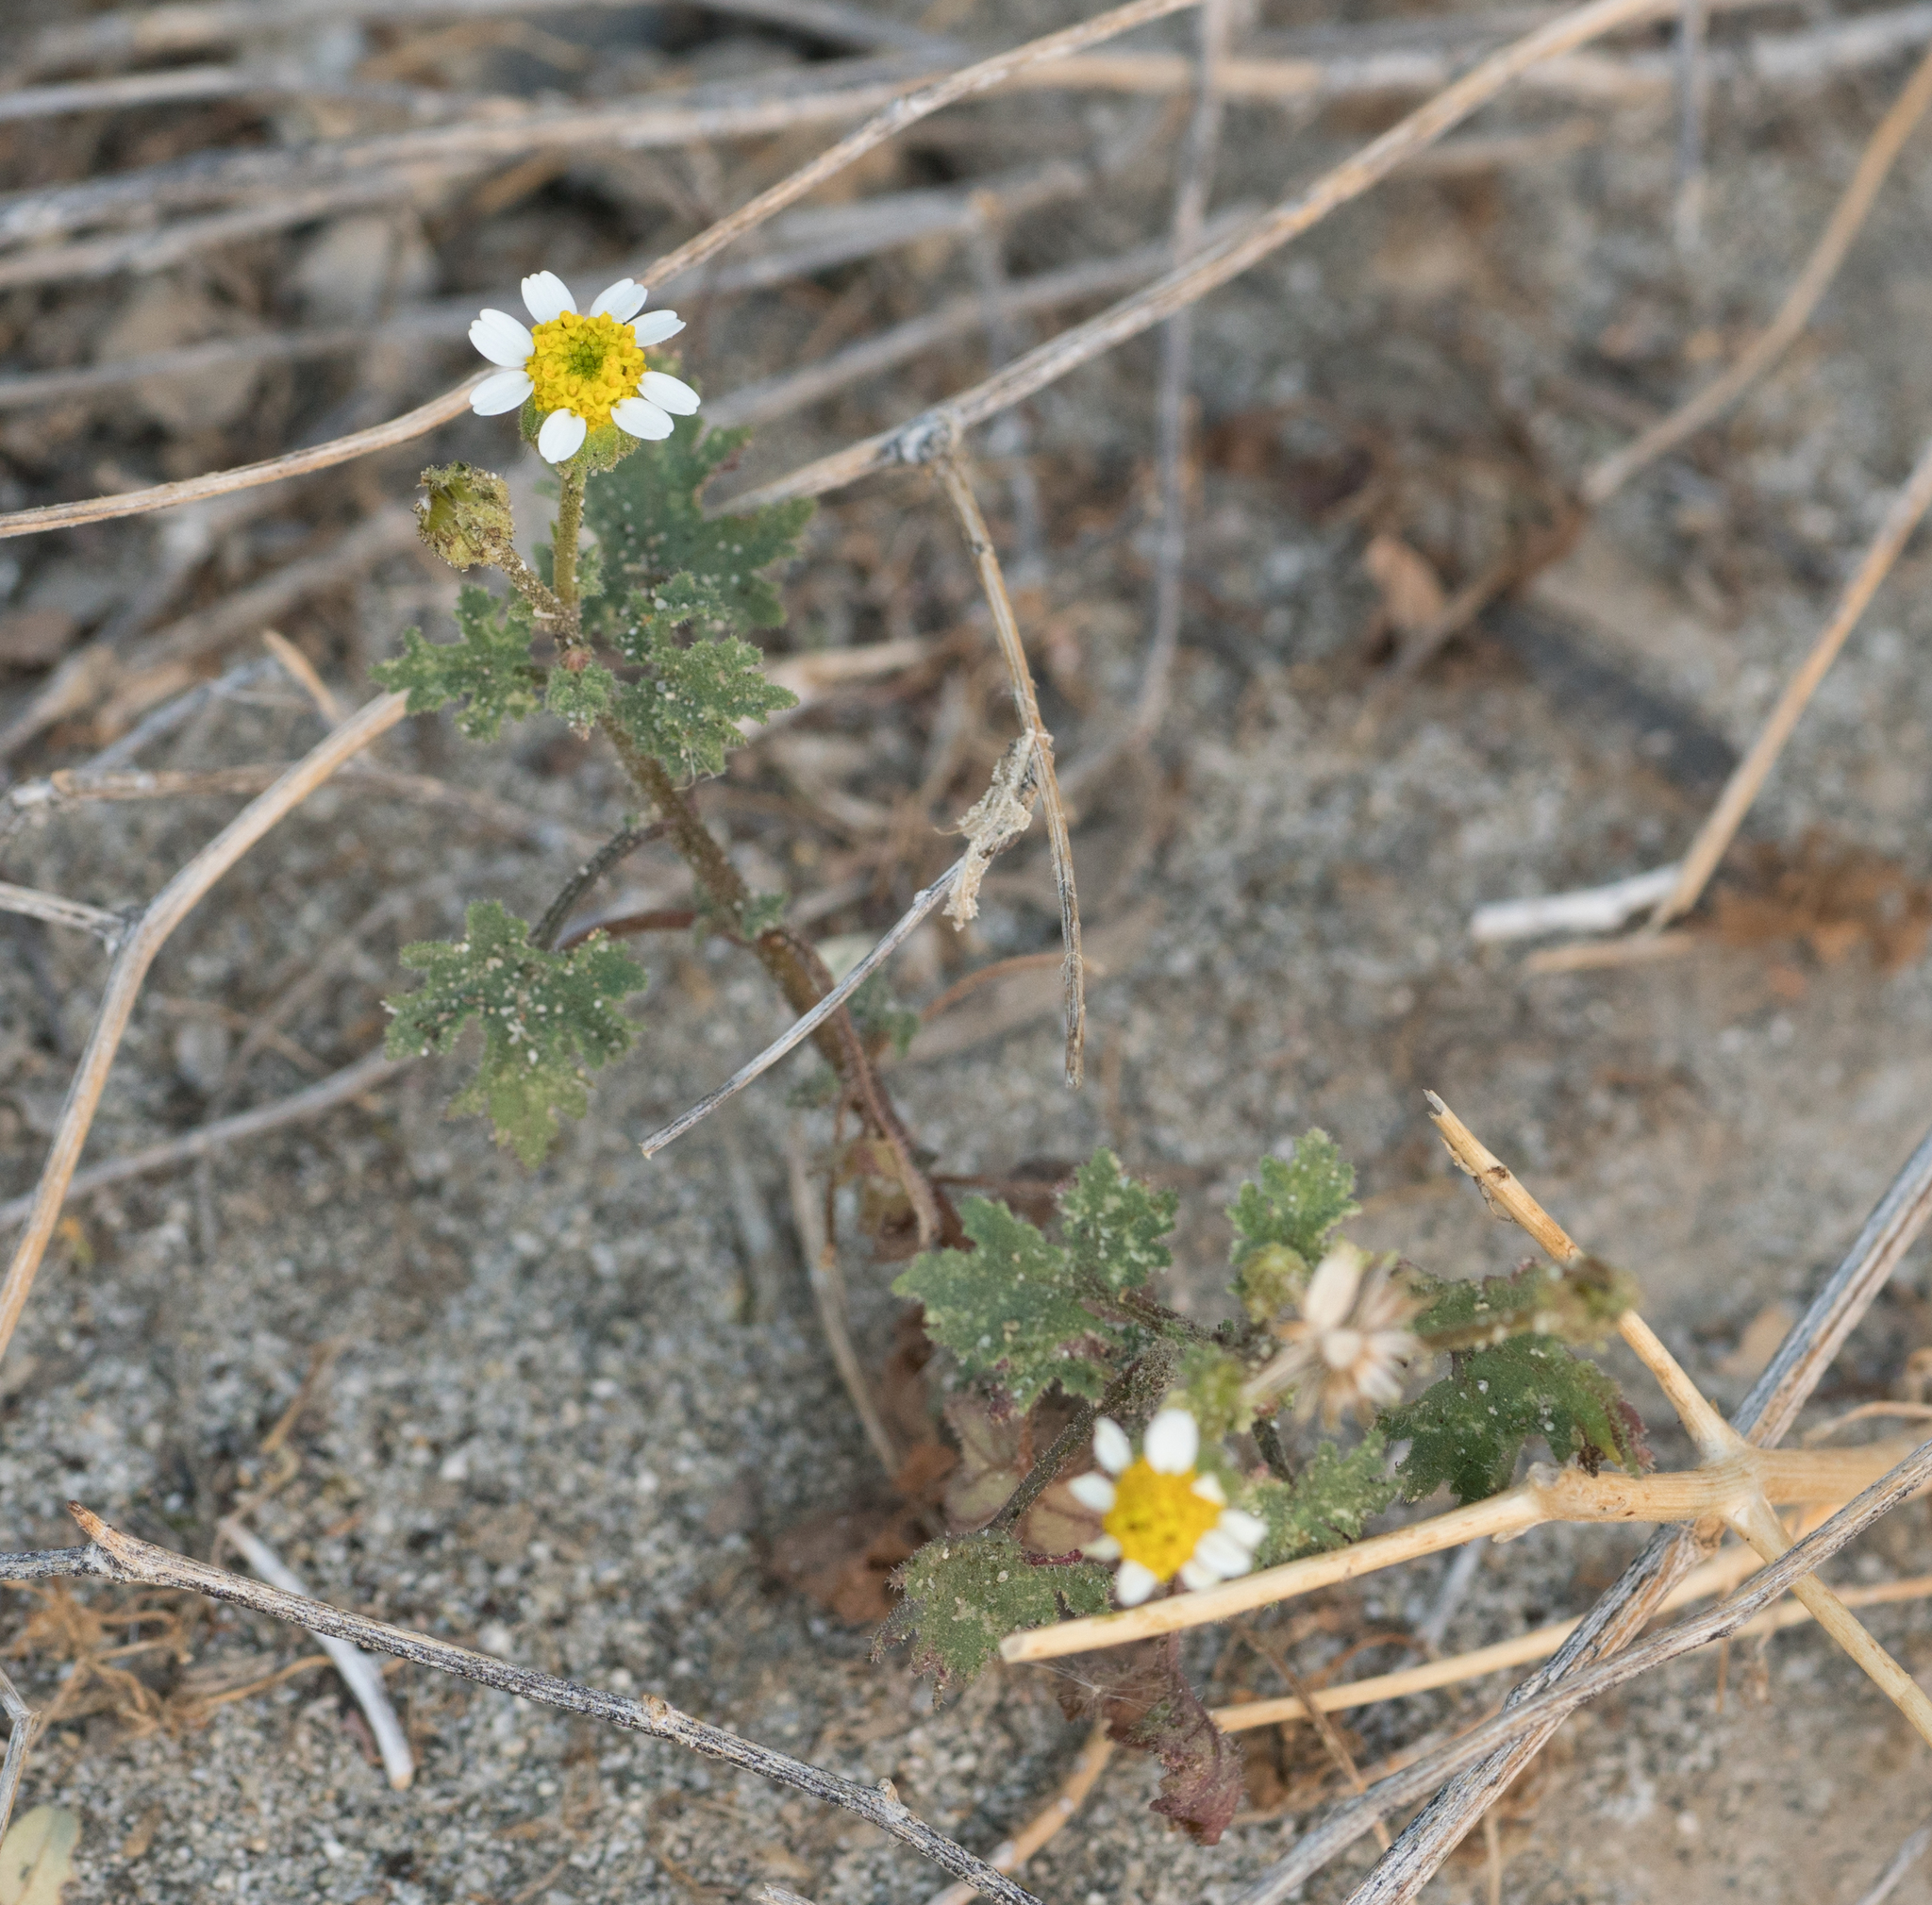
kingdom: Plantae
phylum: Tracheophyta
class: Magnoliopsida
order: Asterales
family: Asteraceae
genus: Laphamia
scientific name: Laphamia emoryi
